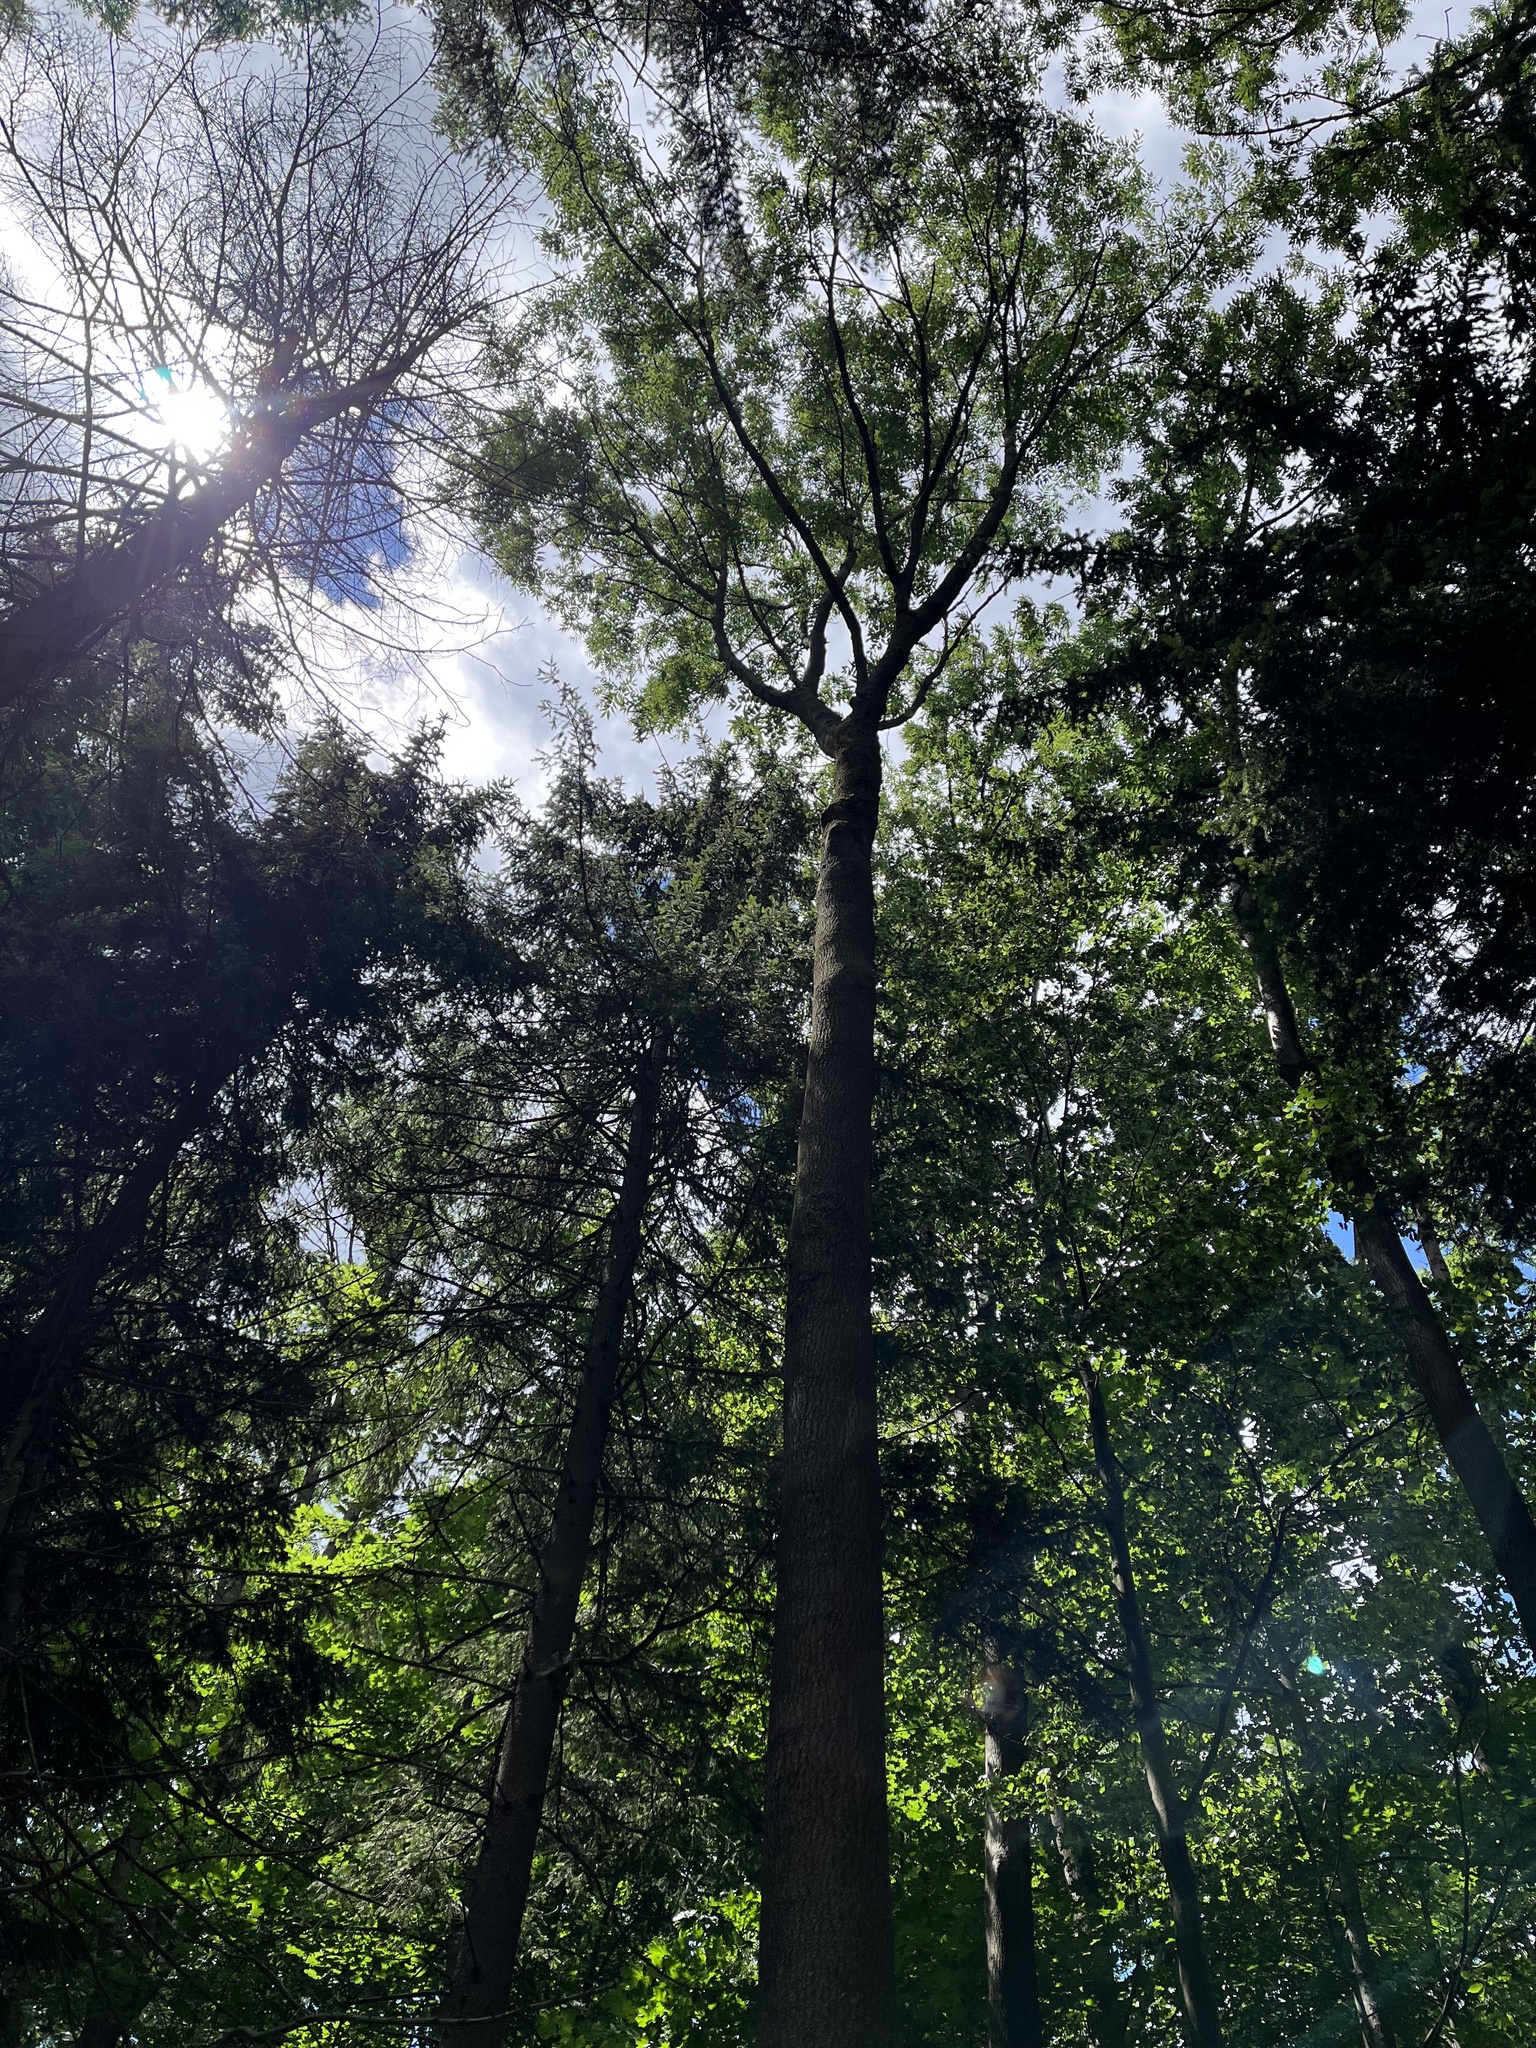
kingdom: Plantae
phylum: Tracheophyta
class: Magnoliopsida
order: Lamiales
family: Oleaceae
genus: Fraxinus
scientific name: Fraxinus excelsior
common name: European ash
